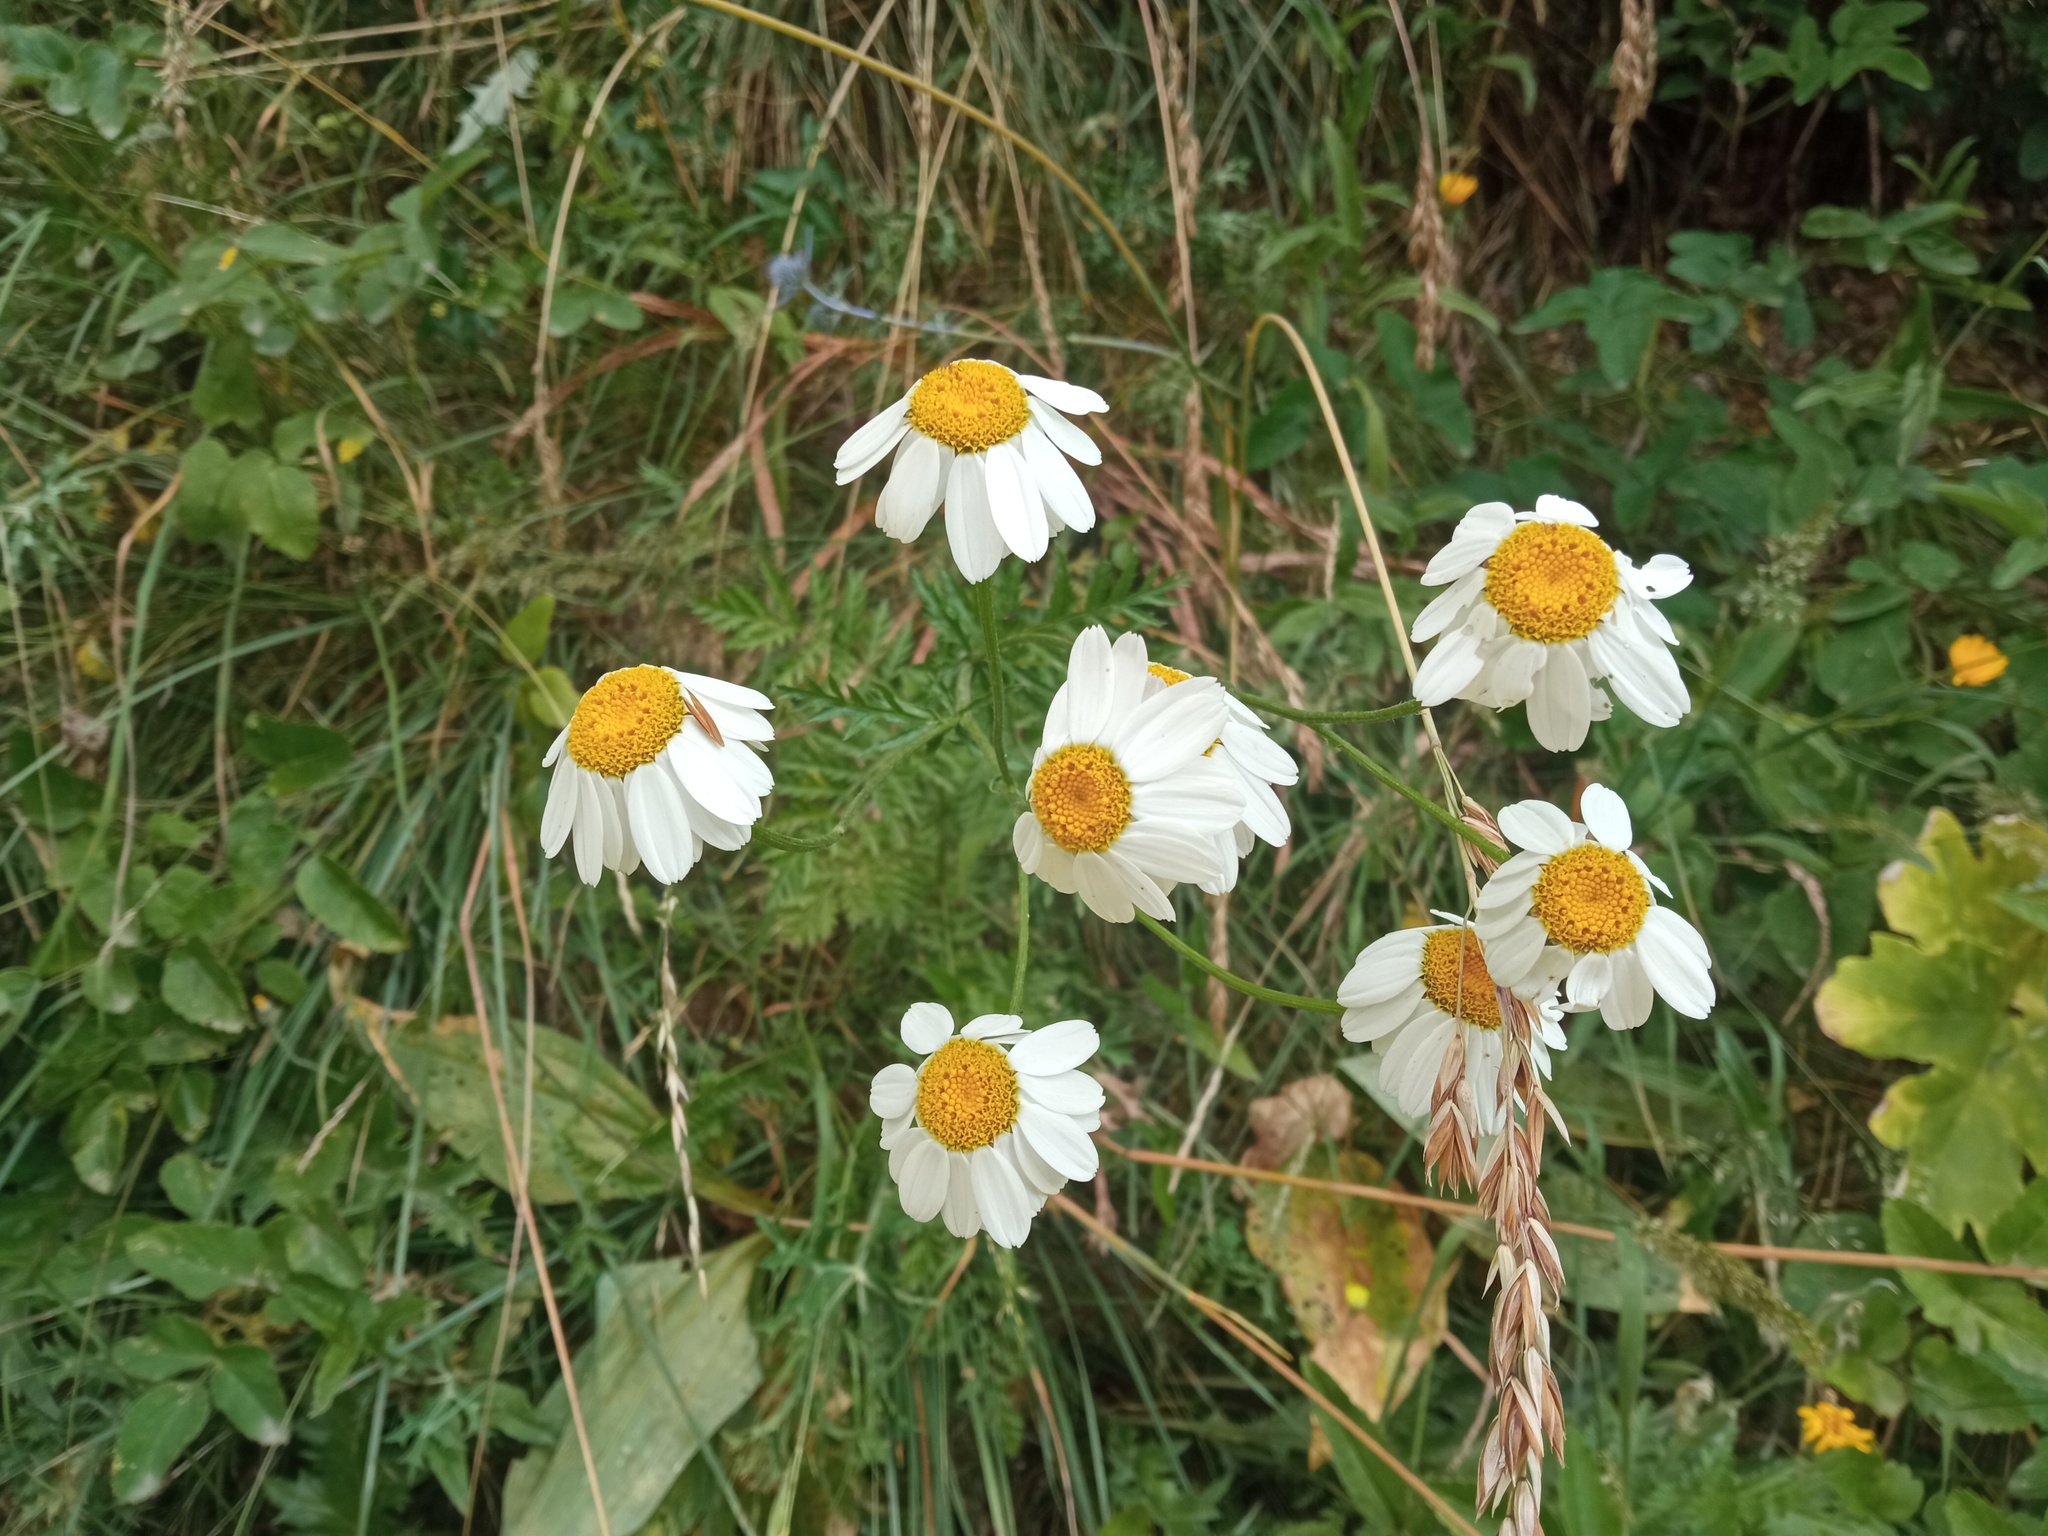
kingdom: Plantae
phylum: Tracheophyta
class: Magnoliopsida
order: Asterales
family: Asteraceae
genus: Tanacetum
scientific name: Tanacetum corymbosum
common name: Scentless feverfew
